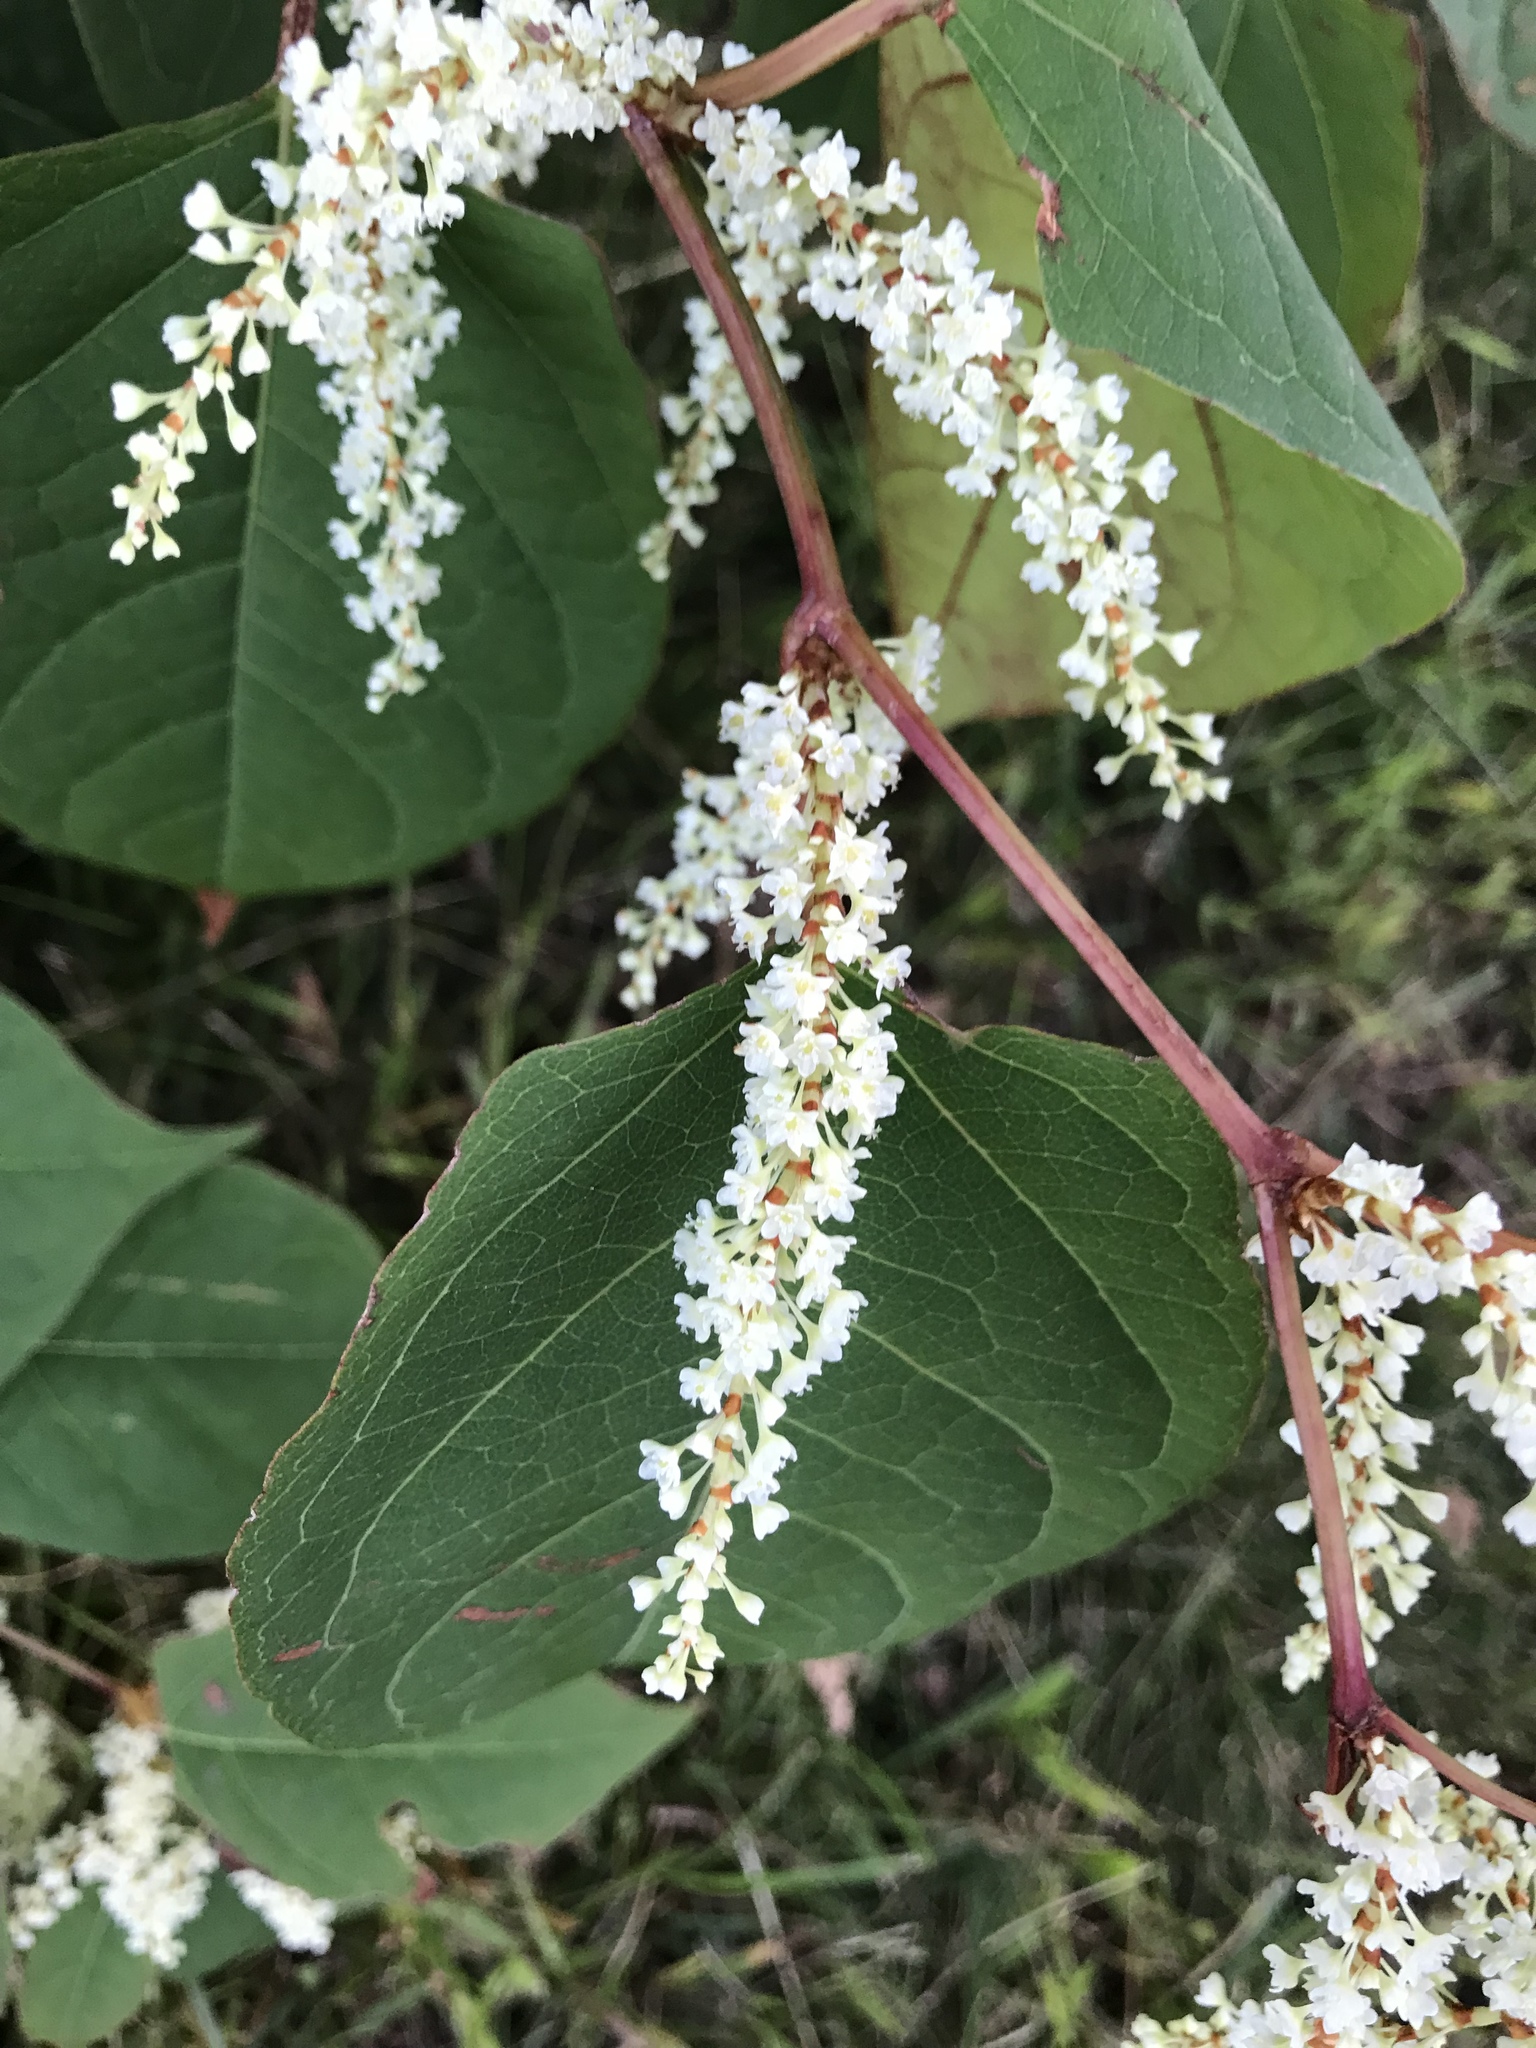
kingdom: Plantae
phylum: Tracheophyta
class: Magnoliopsida
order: Caryophyllales
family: Polygonaceae
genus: Reynoutria
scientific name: Reynoutria japonica
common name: Japanese knotweed
